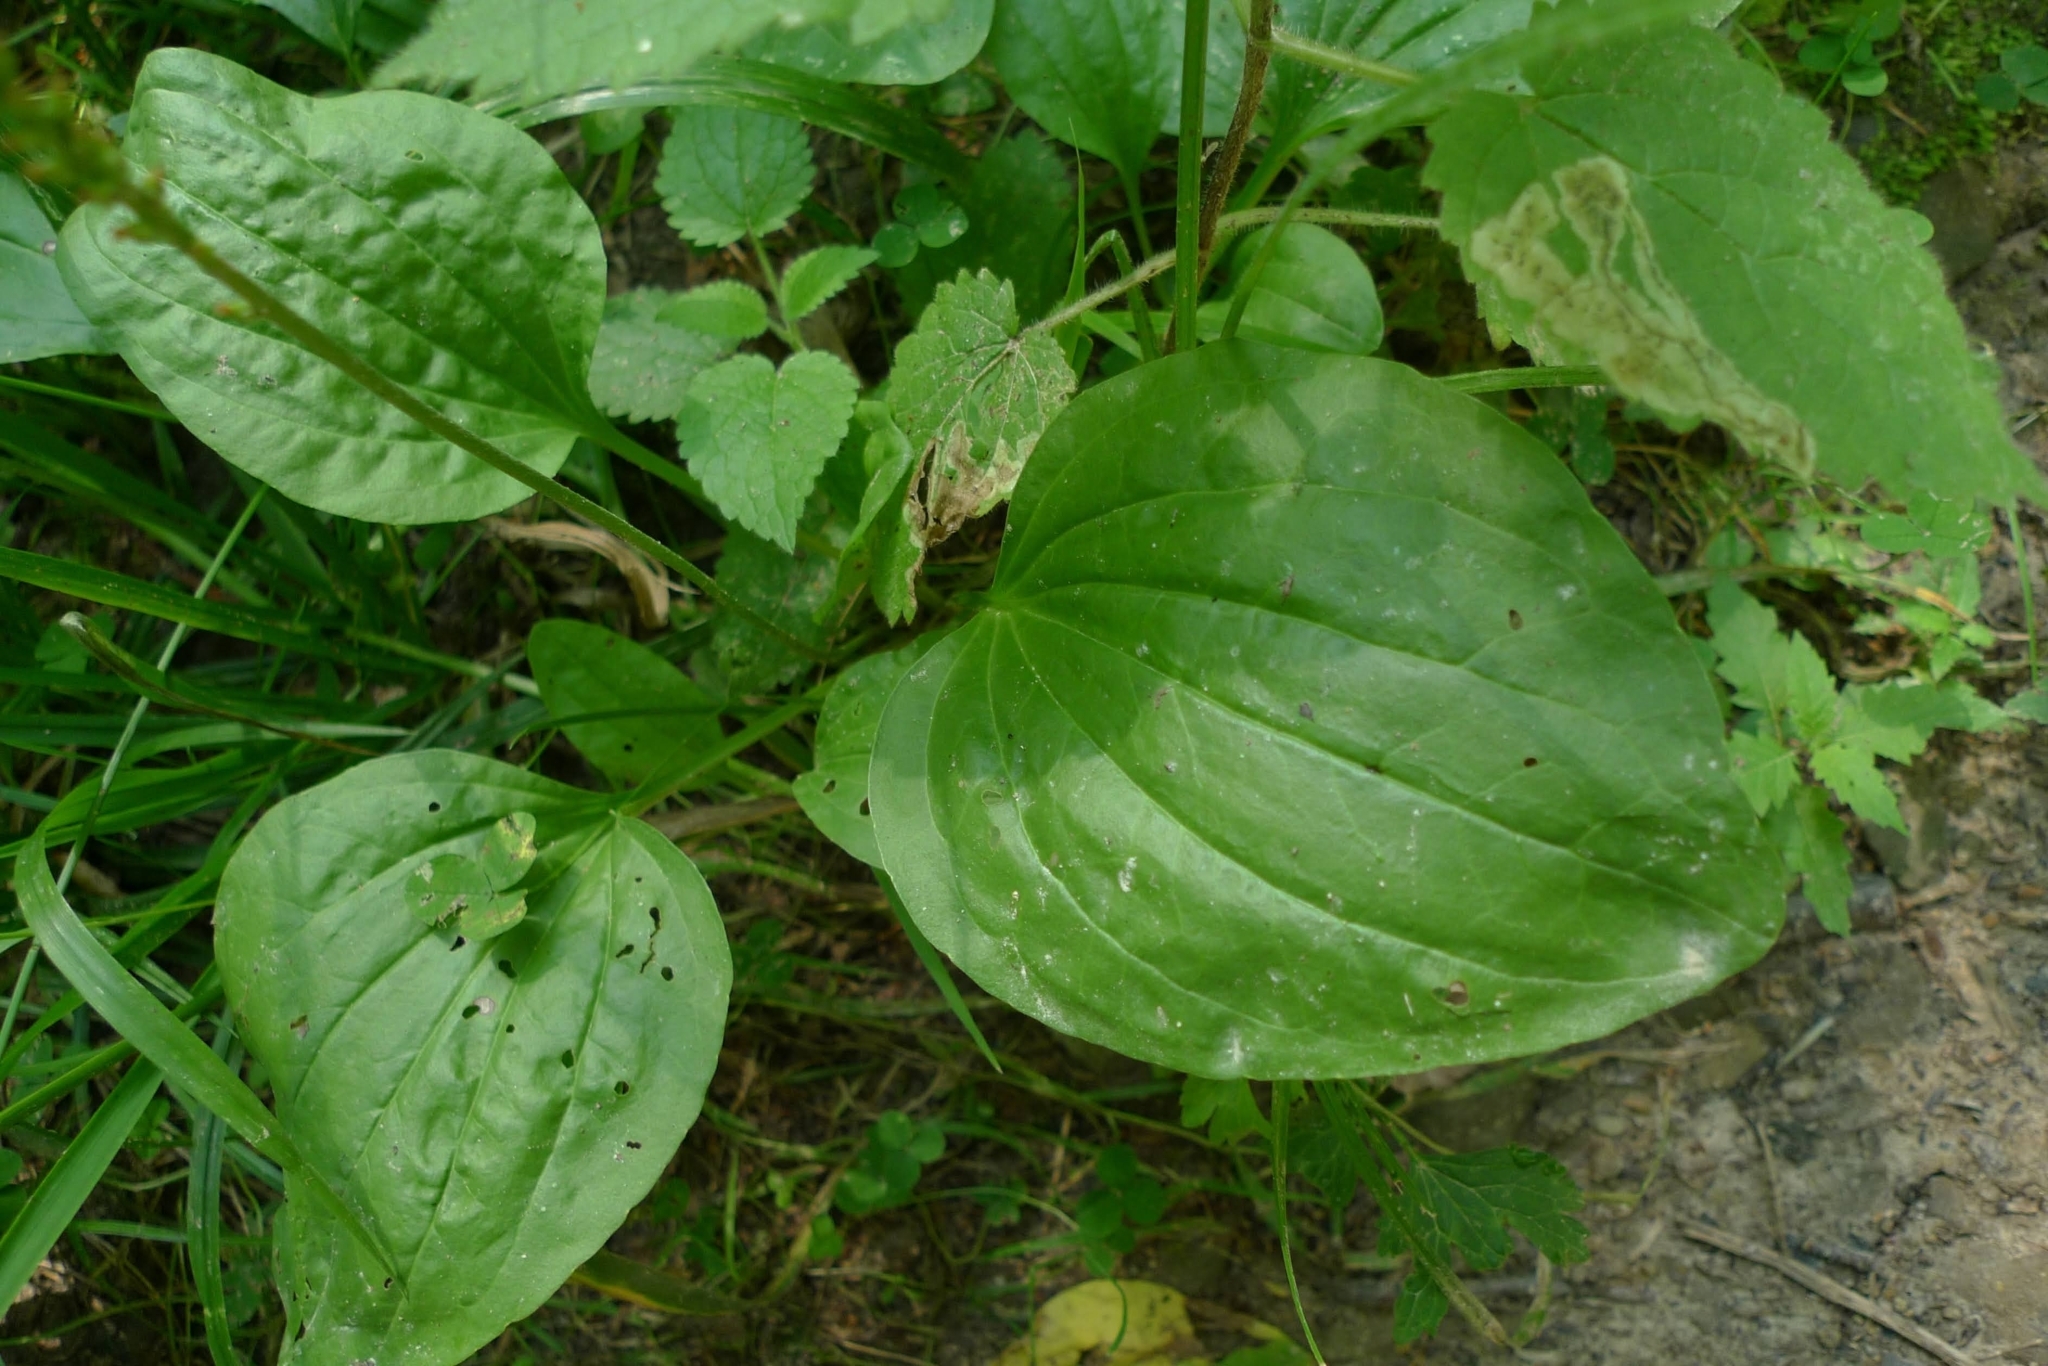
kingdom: Plantae
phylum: Tracheophyta
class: Magnoliopsida
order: Lamiales
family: Plantaginaceae
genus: Plantago
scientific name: Plantago major
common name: Common plantain
